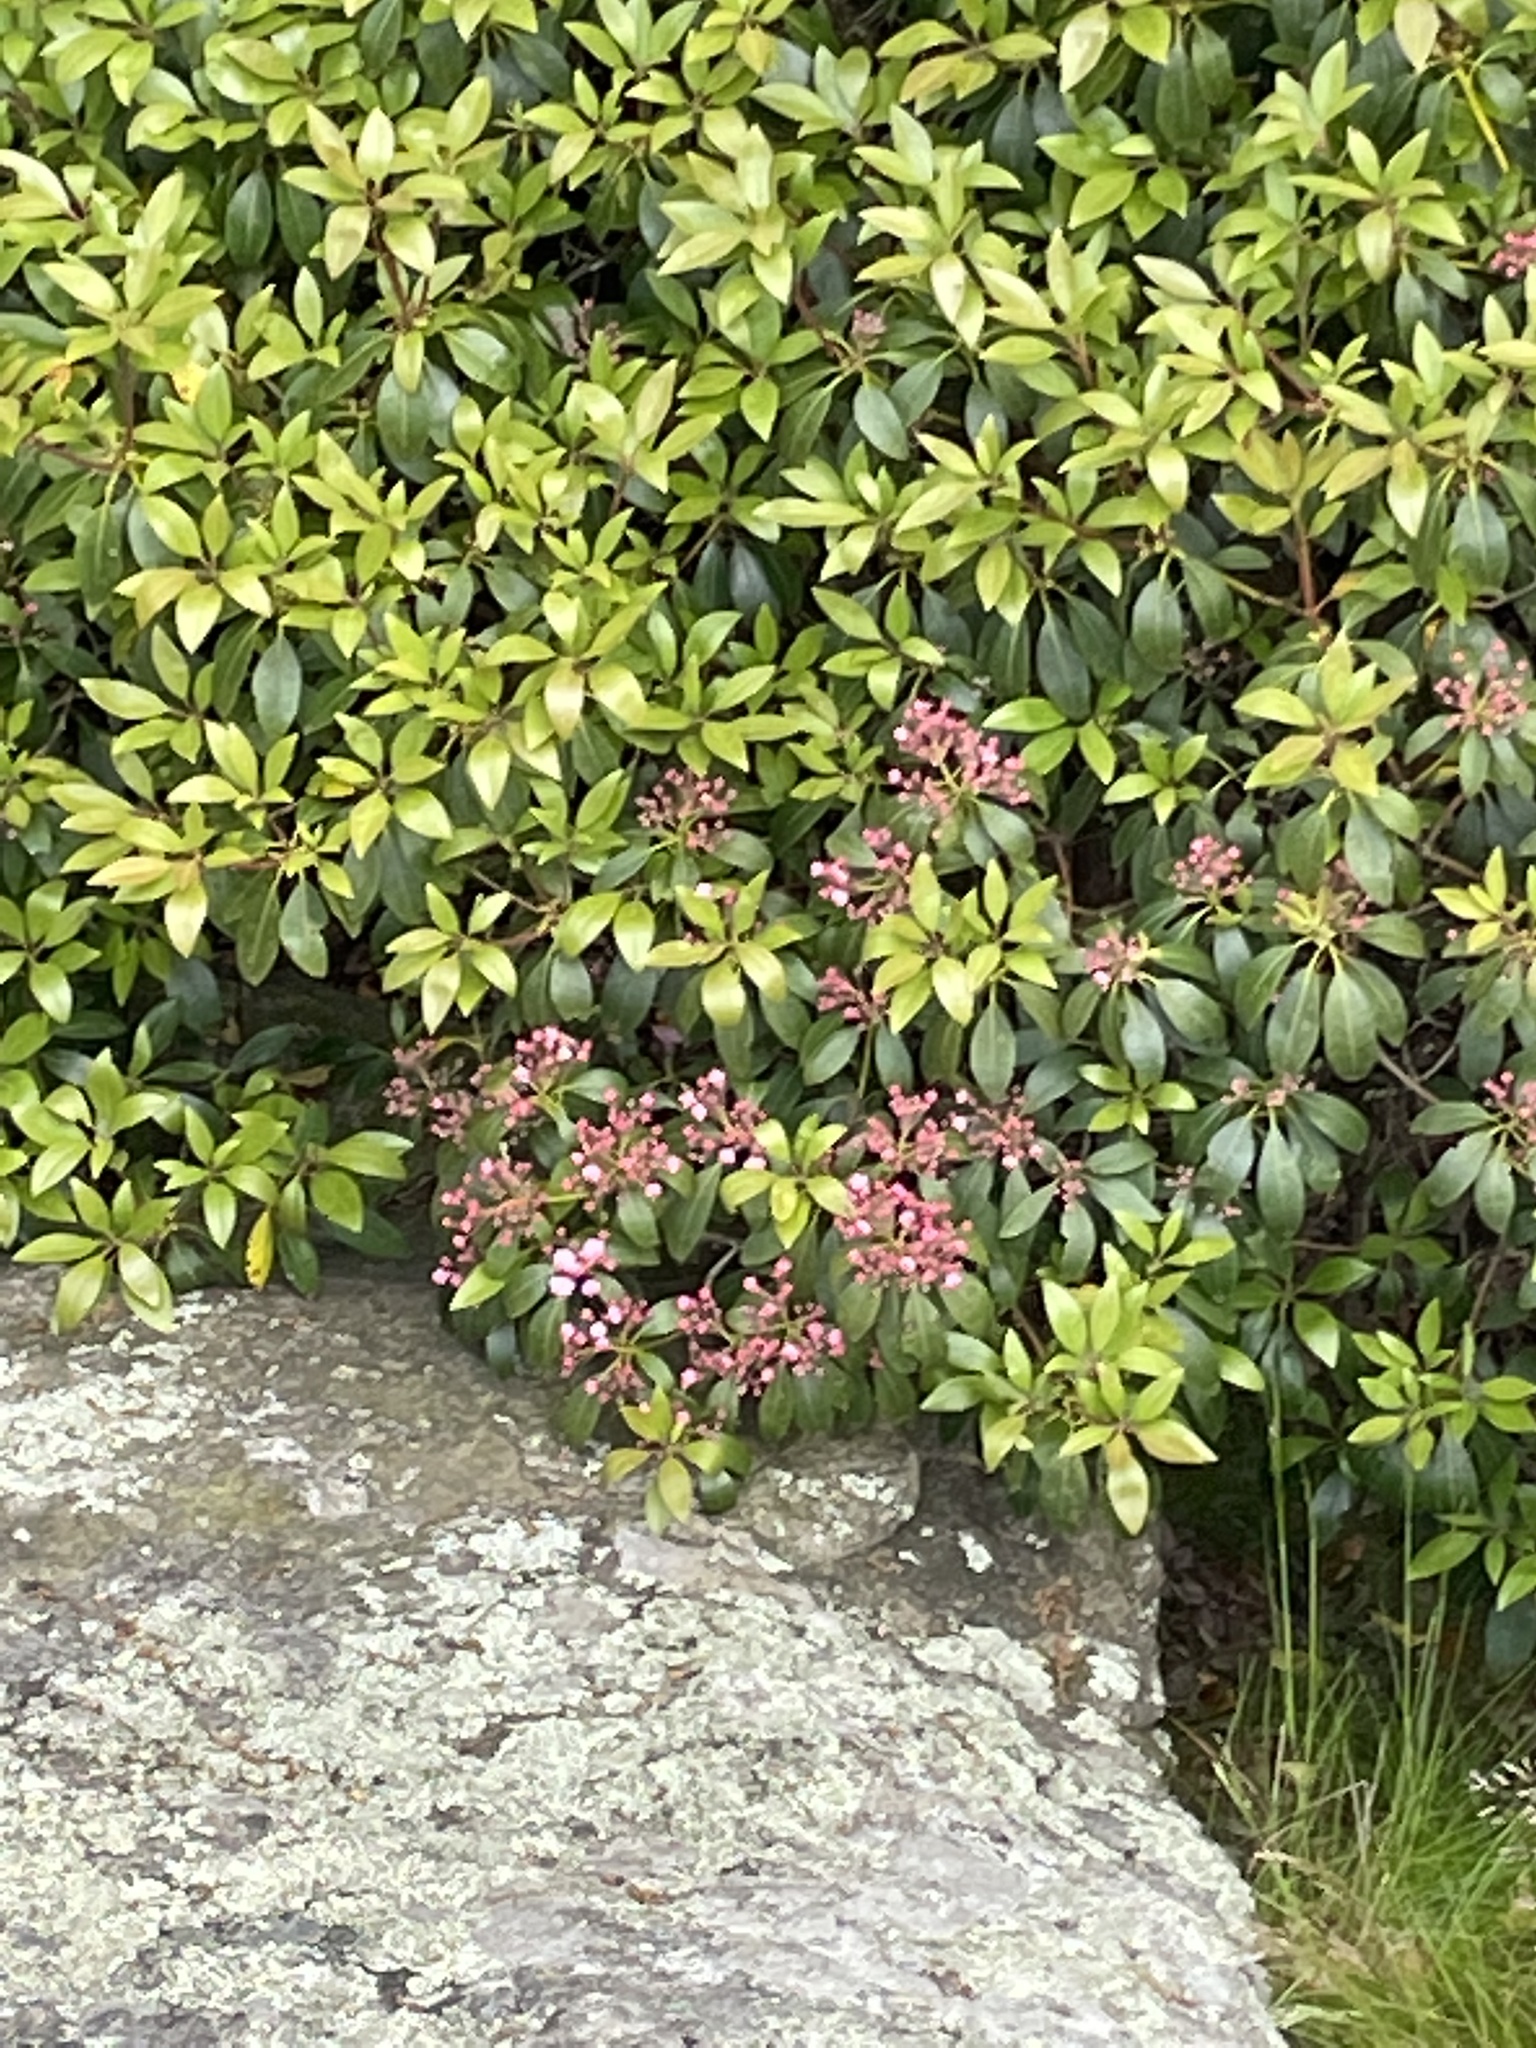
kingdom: Plantae
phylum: Tracheophyta
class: Magnoliopsida
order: Ericales
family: Ericaceae
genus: Kalmia
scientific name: Kalmia latifolia
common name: Mountain-laurel
